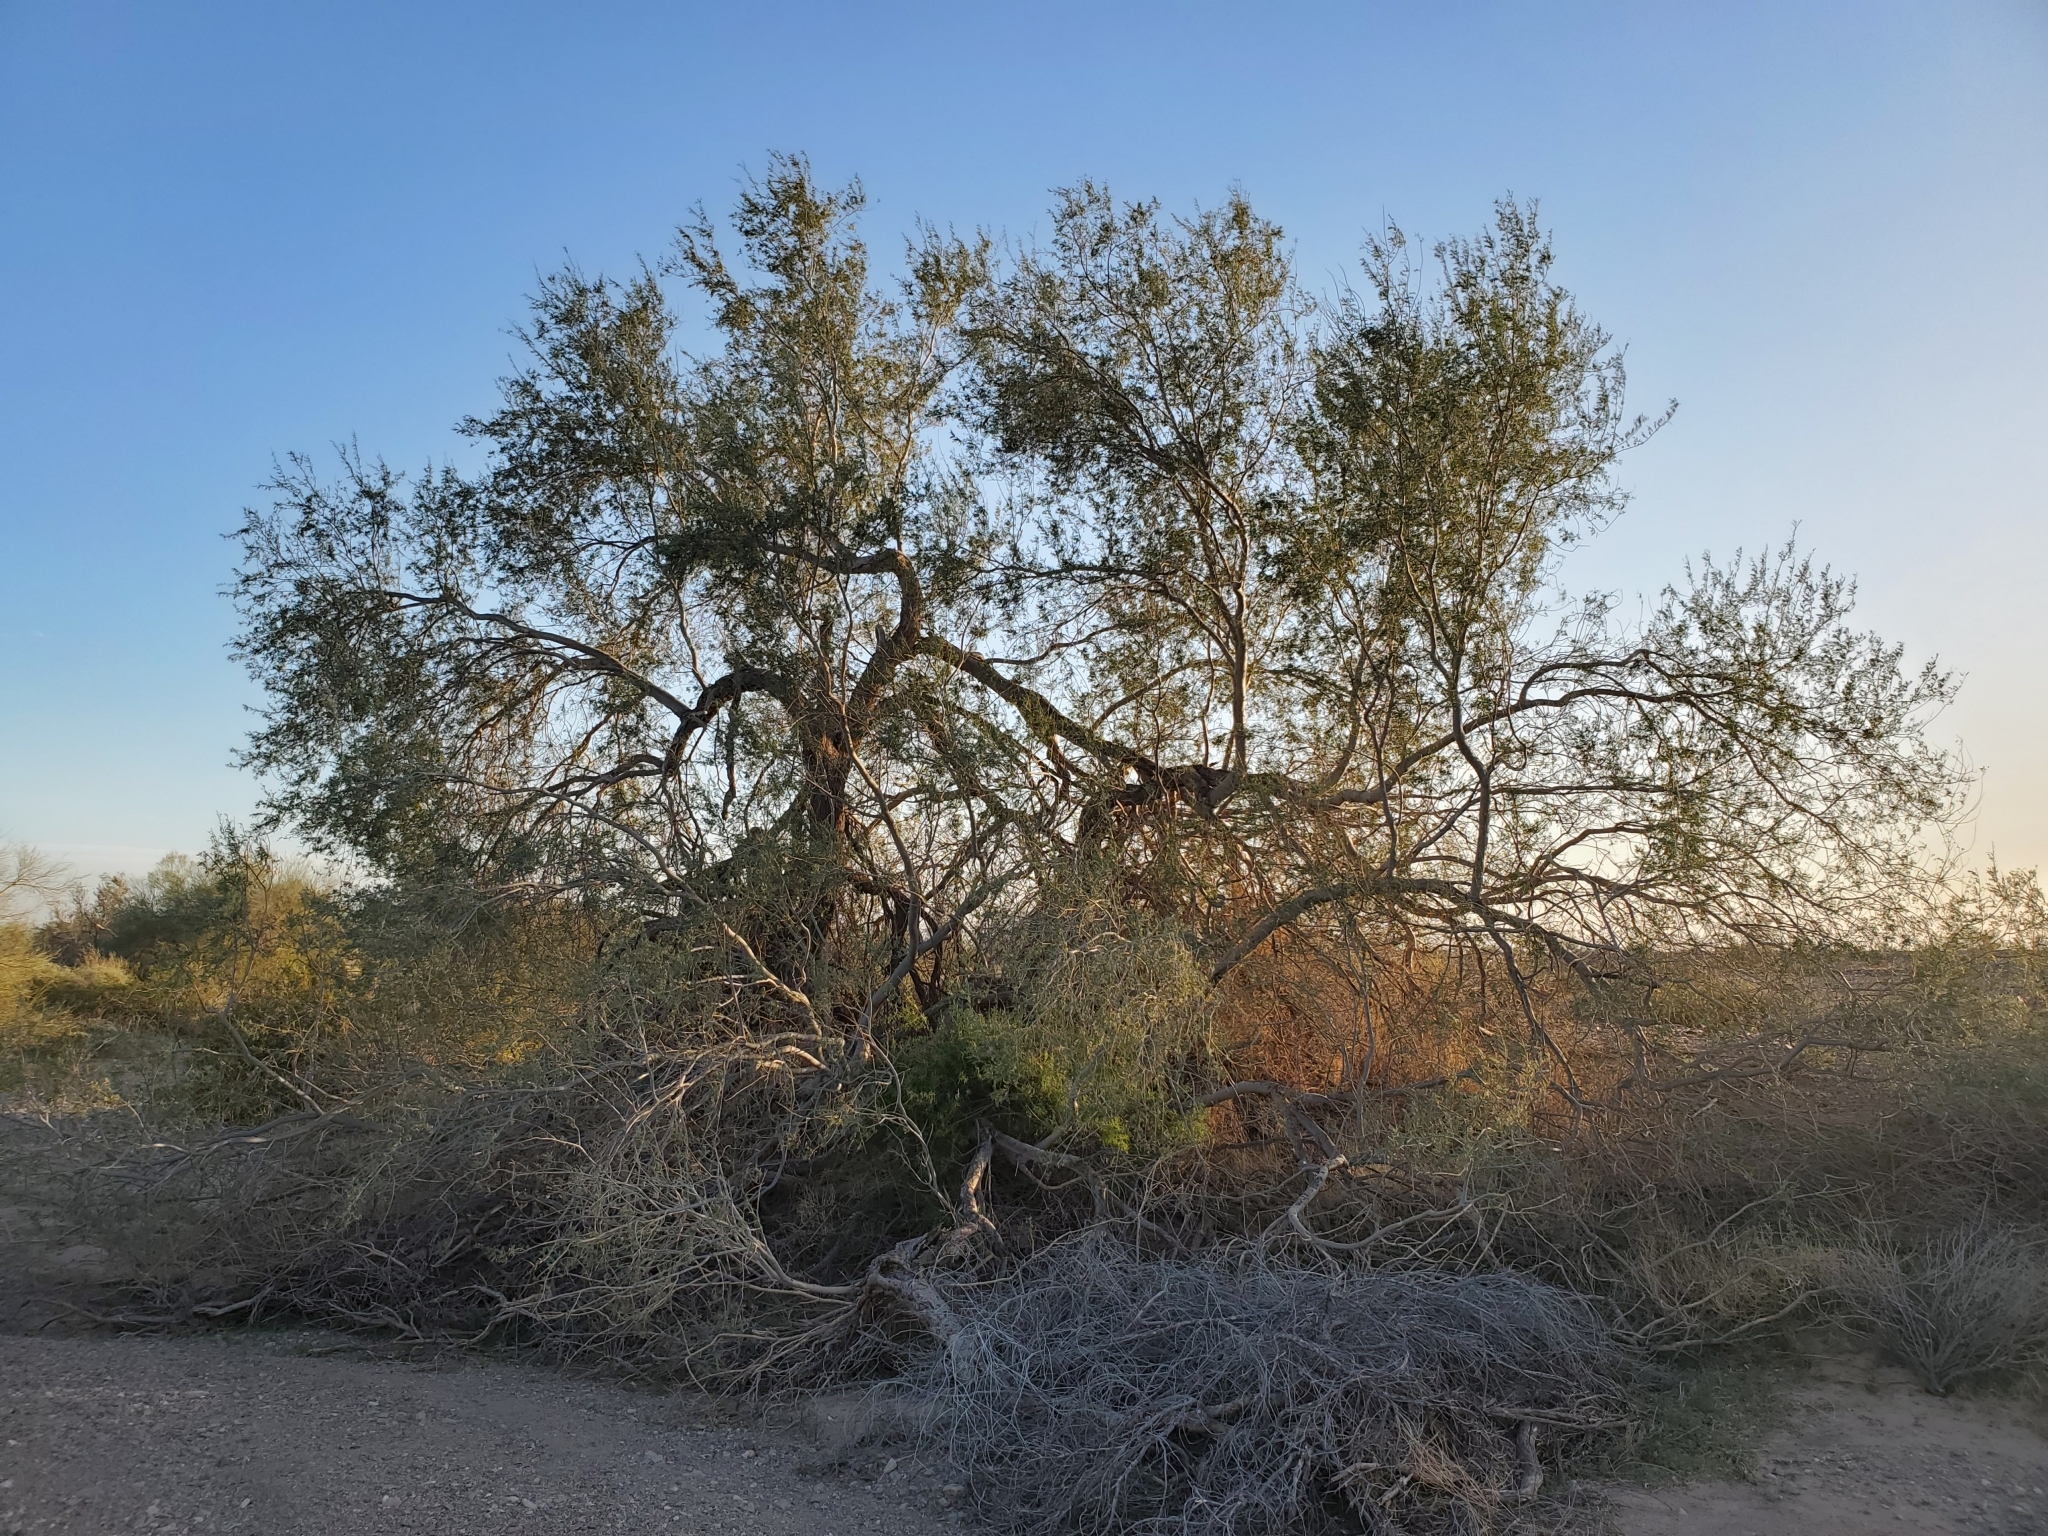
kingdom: Plantae
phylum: Tracheophyta
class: Magnoliopsida
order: Fabales
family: Fabaceae
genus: Olneya
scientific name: Olneya tesota
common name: Desert ironwood
